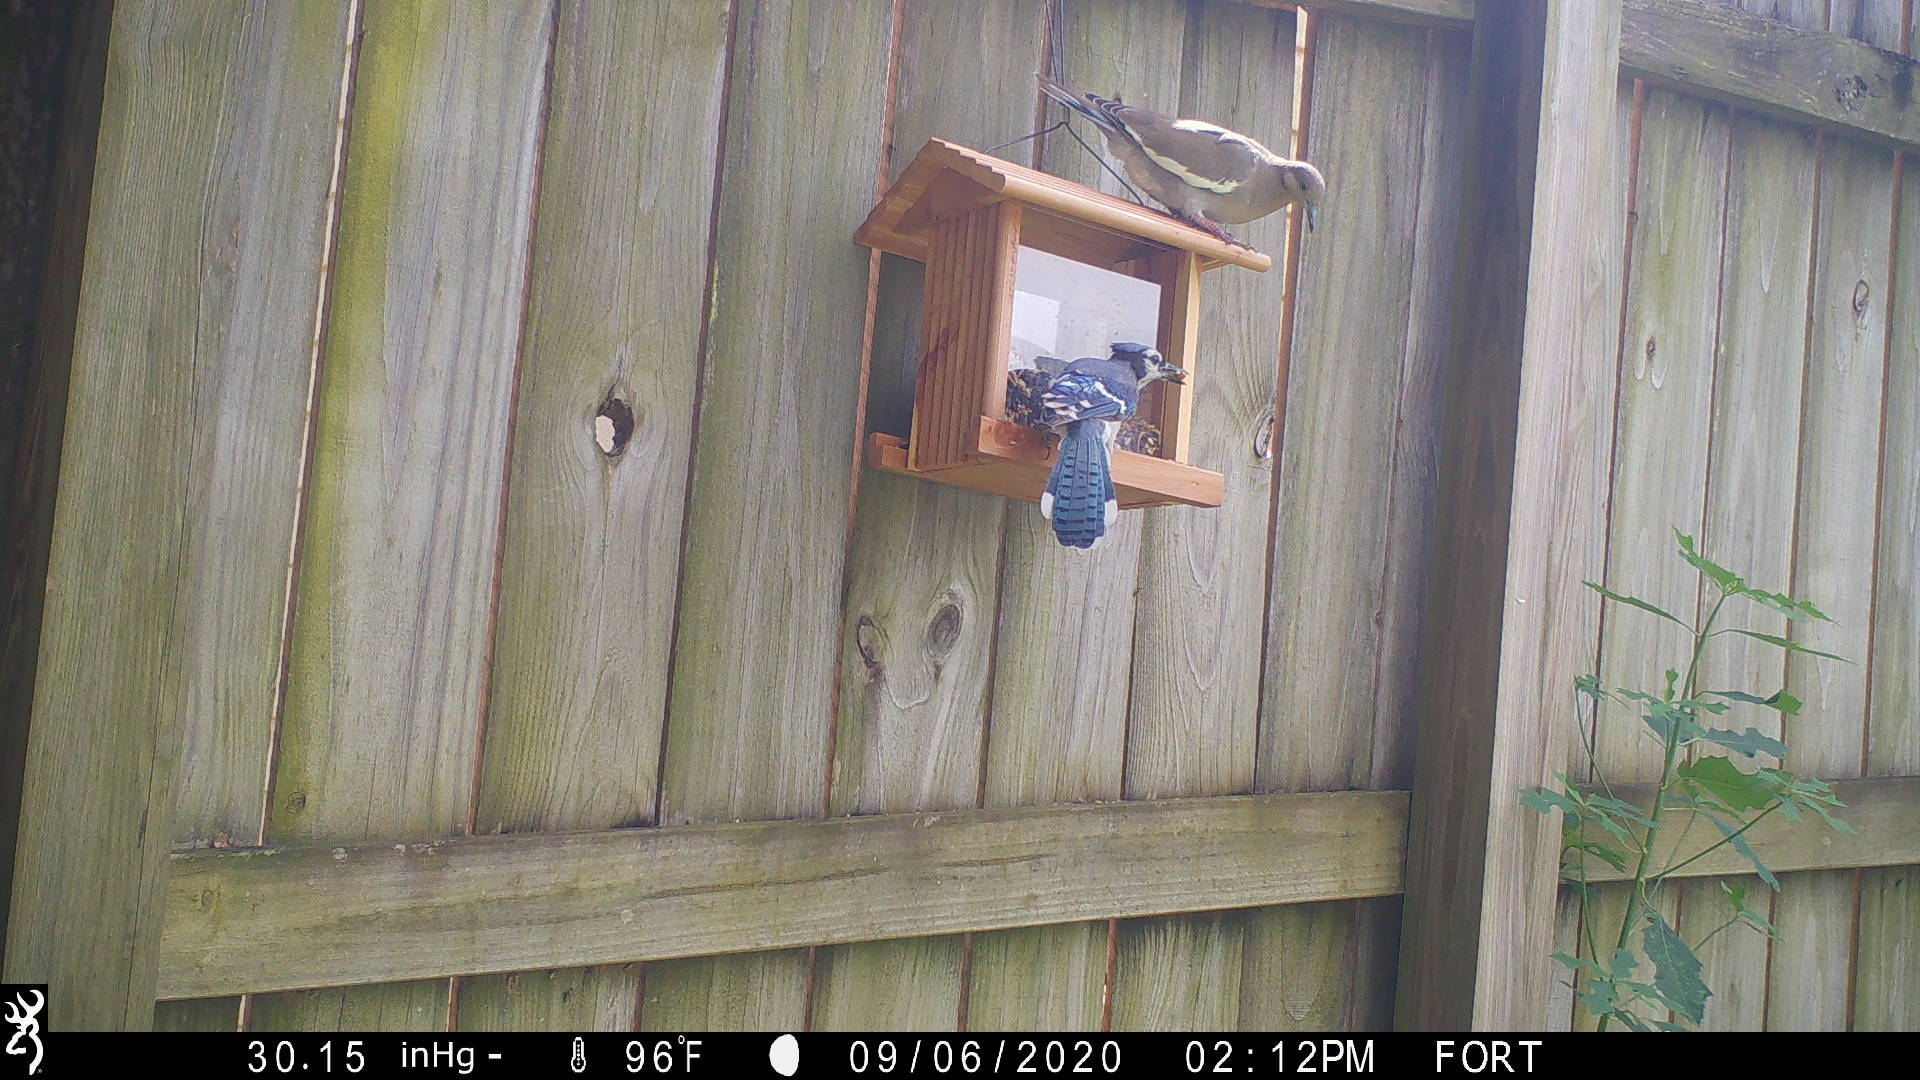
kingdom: Animalia
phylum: Chordata
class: Aves
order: Passeriformes
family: Corvidae
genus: Cyanocitta
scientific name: Cyanocitta cristata
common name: Blue jay
